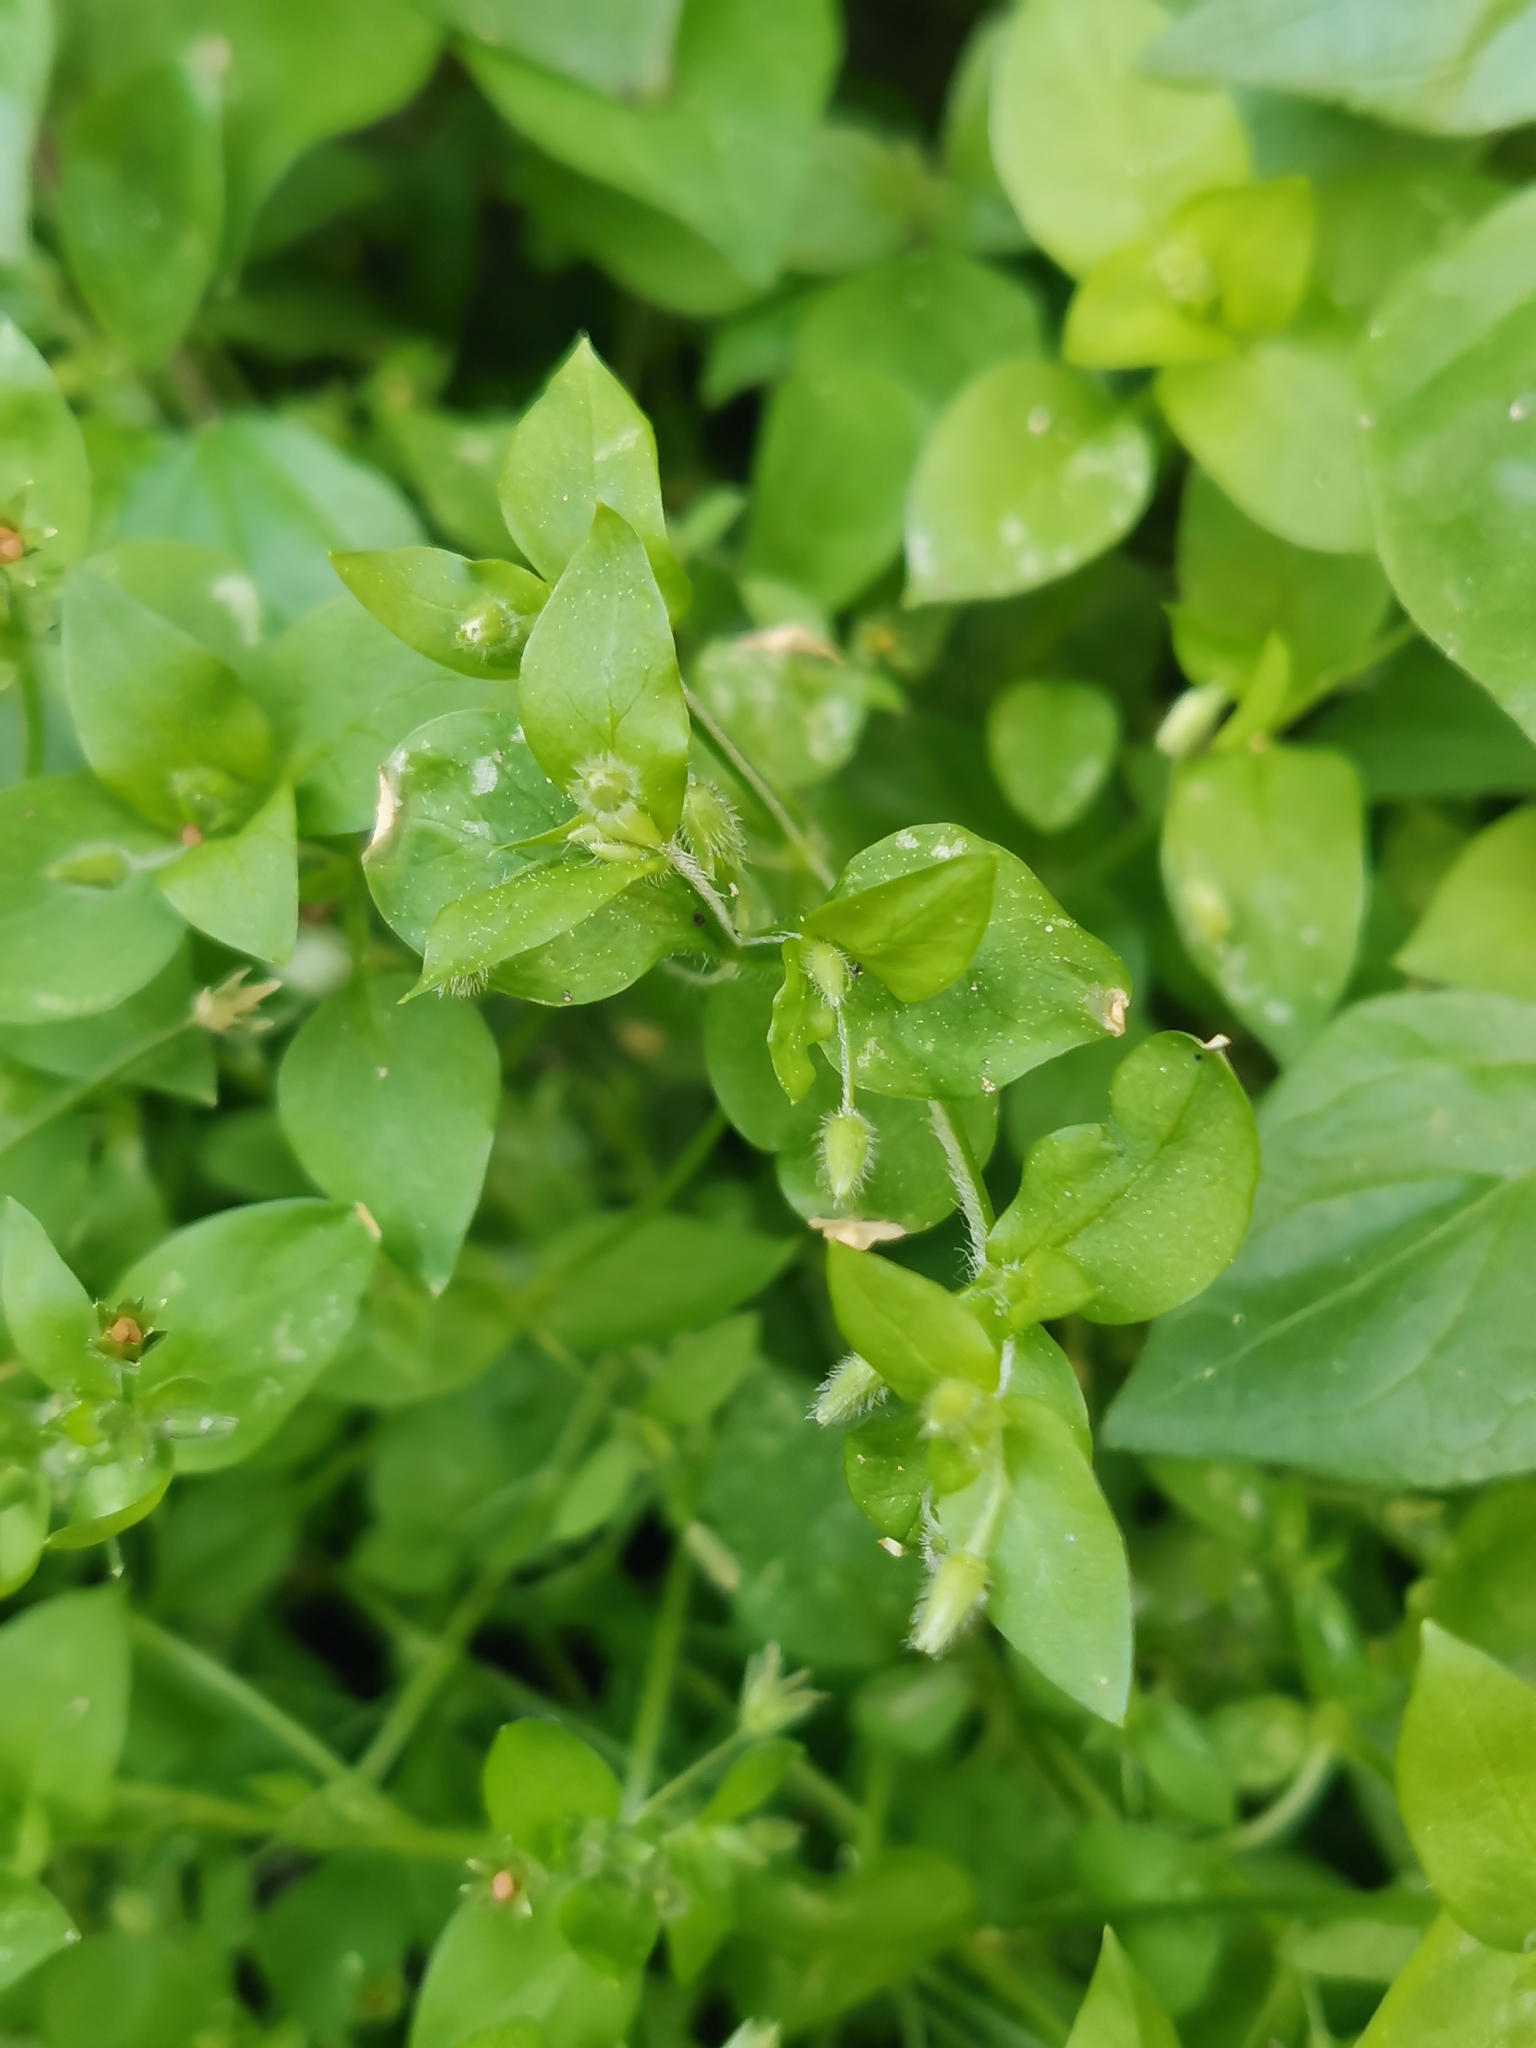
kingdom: Plantae
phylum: Tracheophyta
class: Magnoliopsida
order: Caryophyllales
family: Caryophyllaceae
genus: Stellaria
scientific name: Stellaria media
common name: Common chickweed
